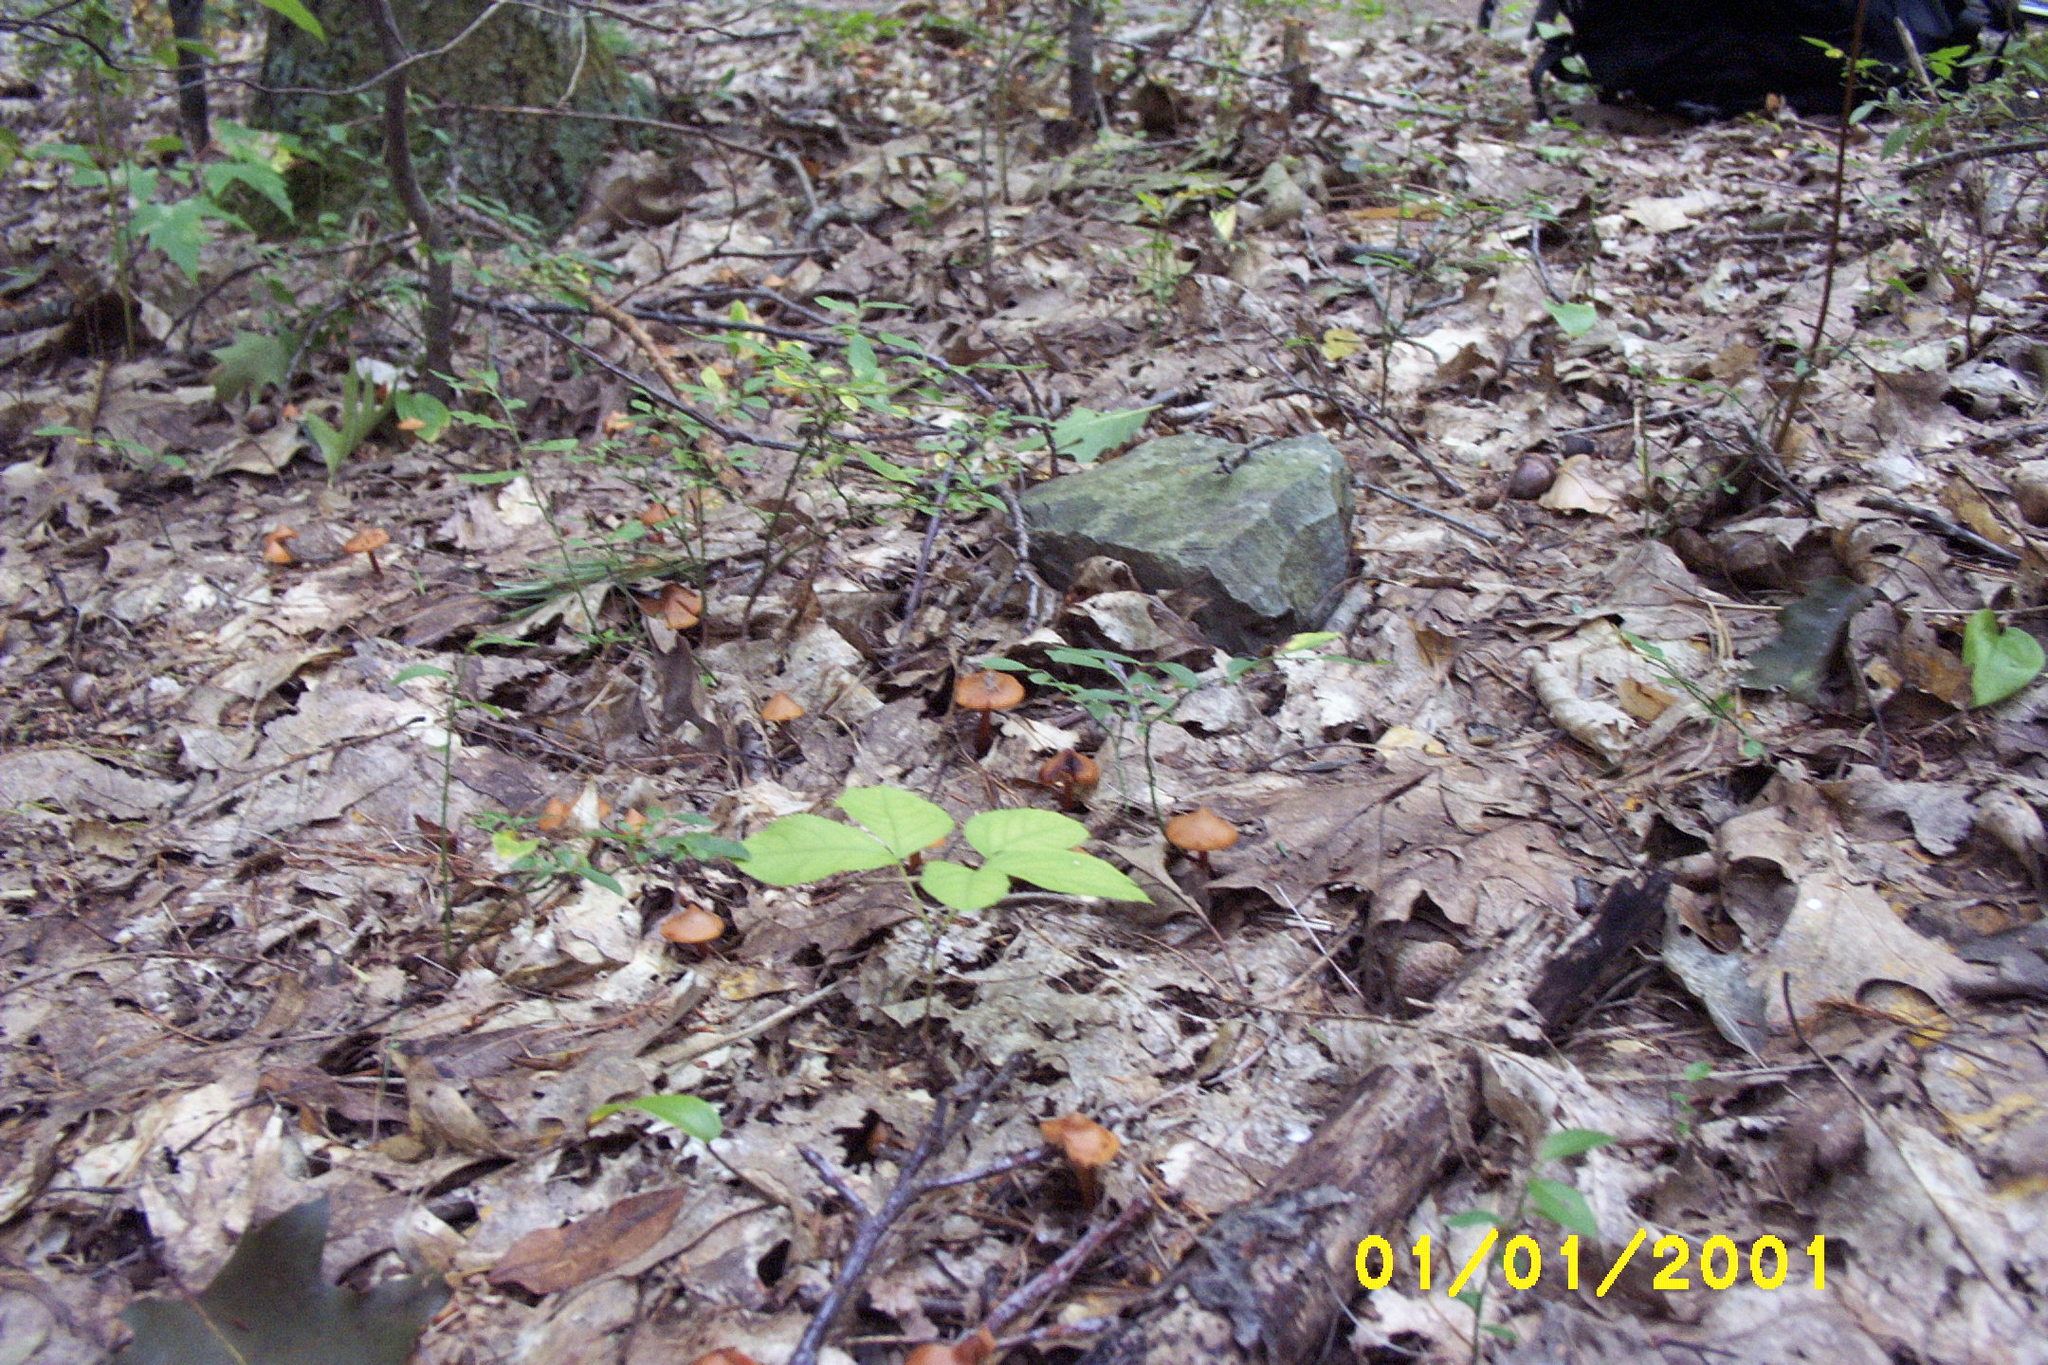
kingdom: Fungi
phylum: Basidiomycota
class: Agaricomycetes
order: Agaricales
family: Hymenogastraceae
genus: Phaeocollybia
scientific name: Phaeocollybia christinae
